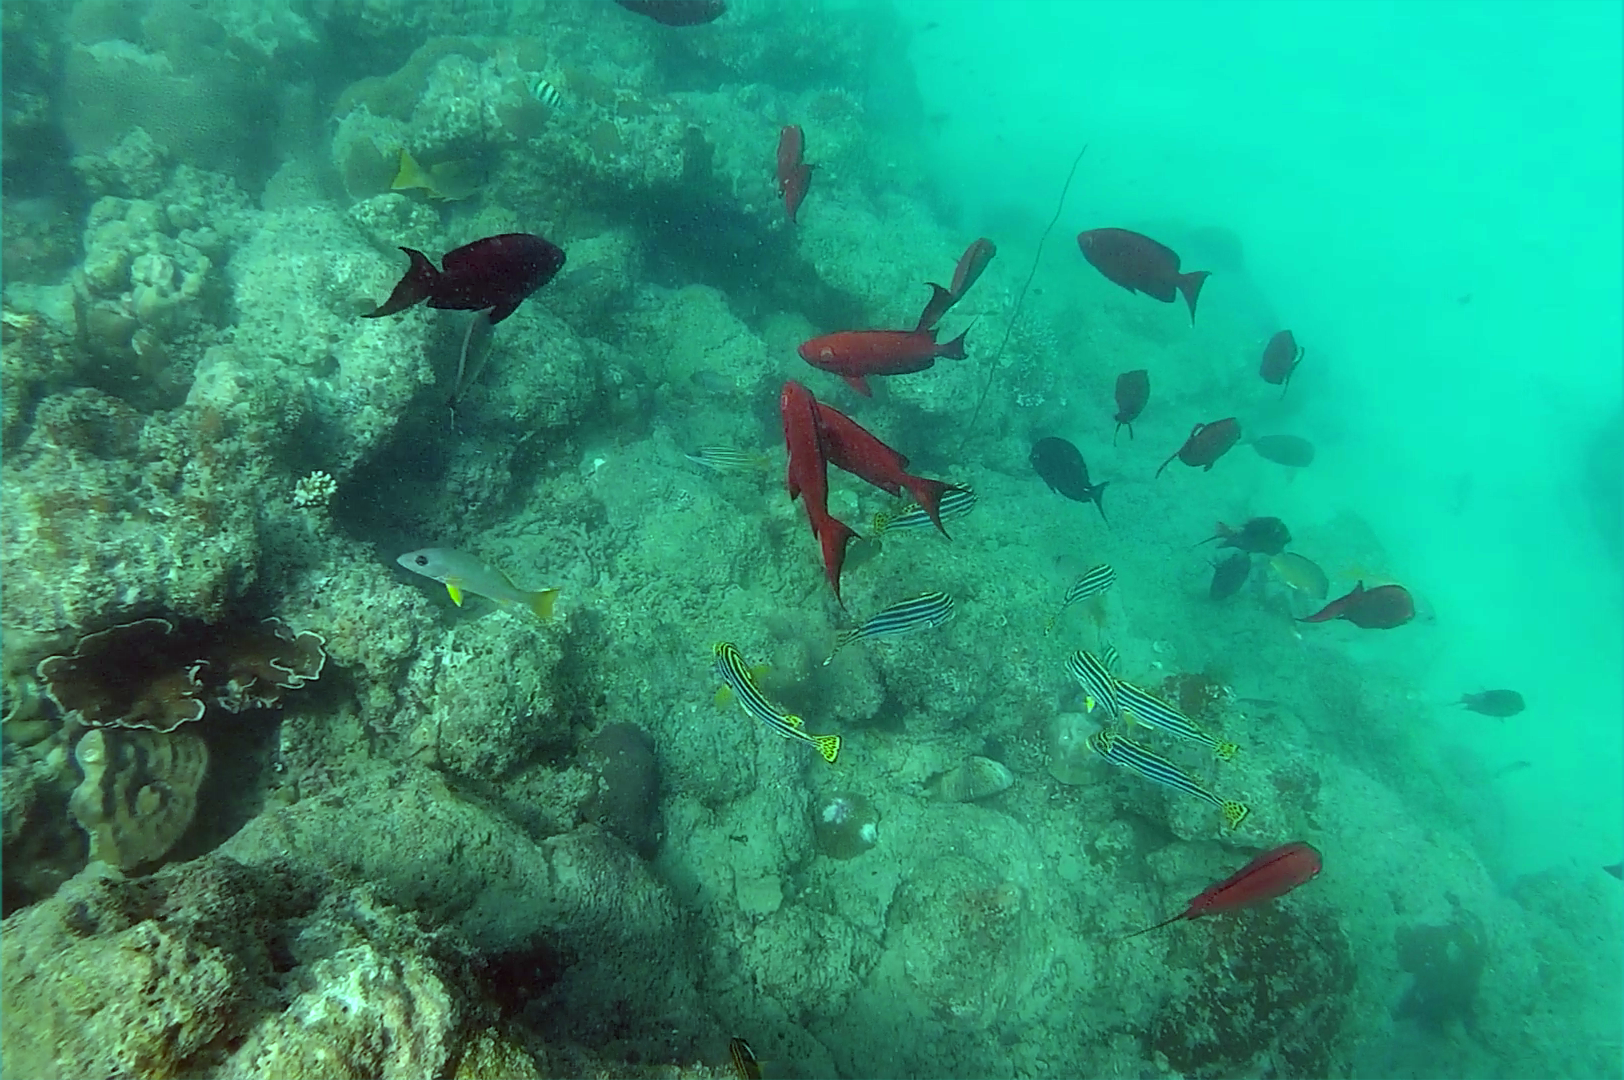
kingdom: Animalia
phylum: Chordata
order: Perciformes
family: Priacanthidae
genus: Priacanthus
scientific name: Priacanthus hamrur
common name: Moontail bullseye
